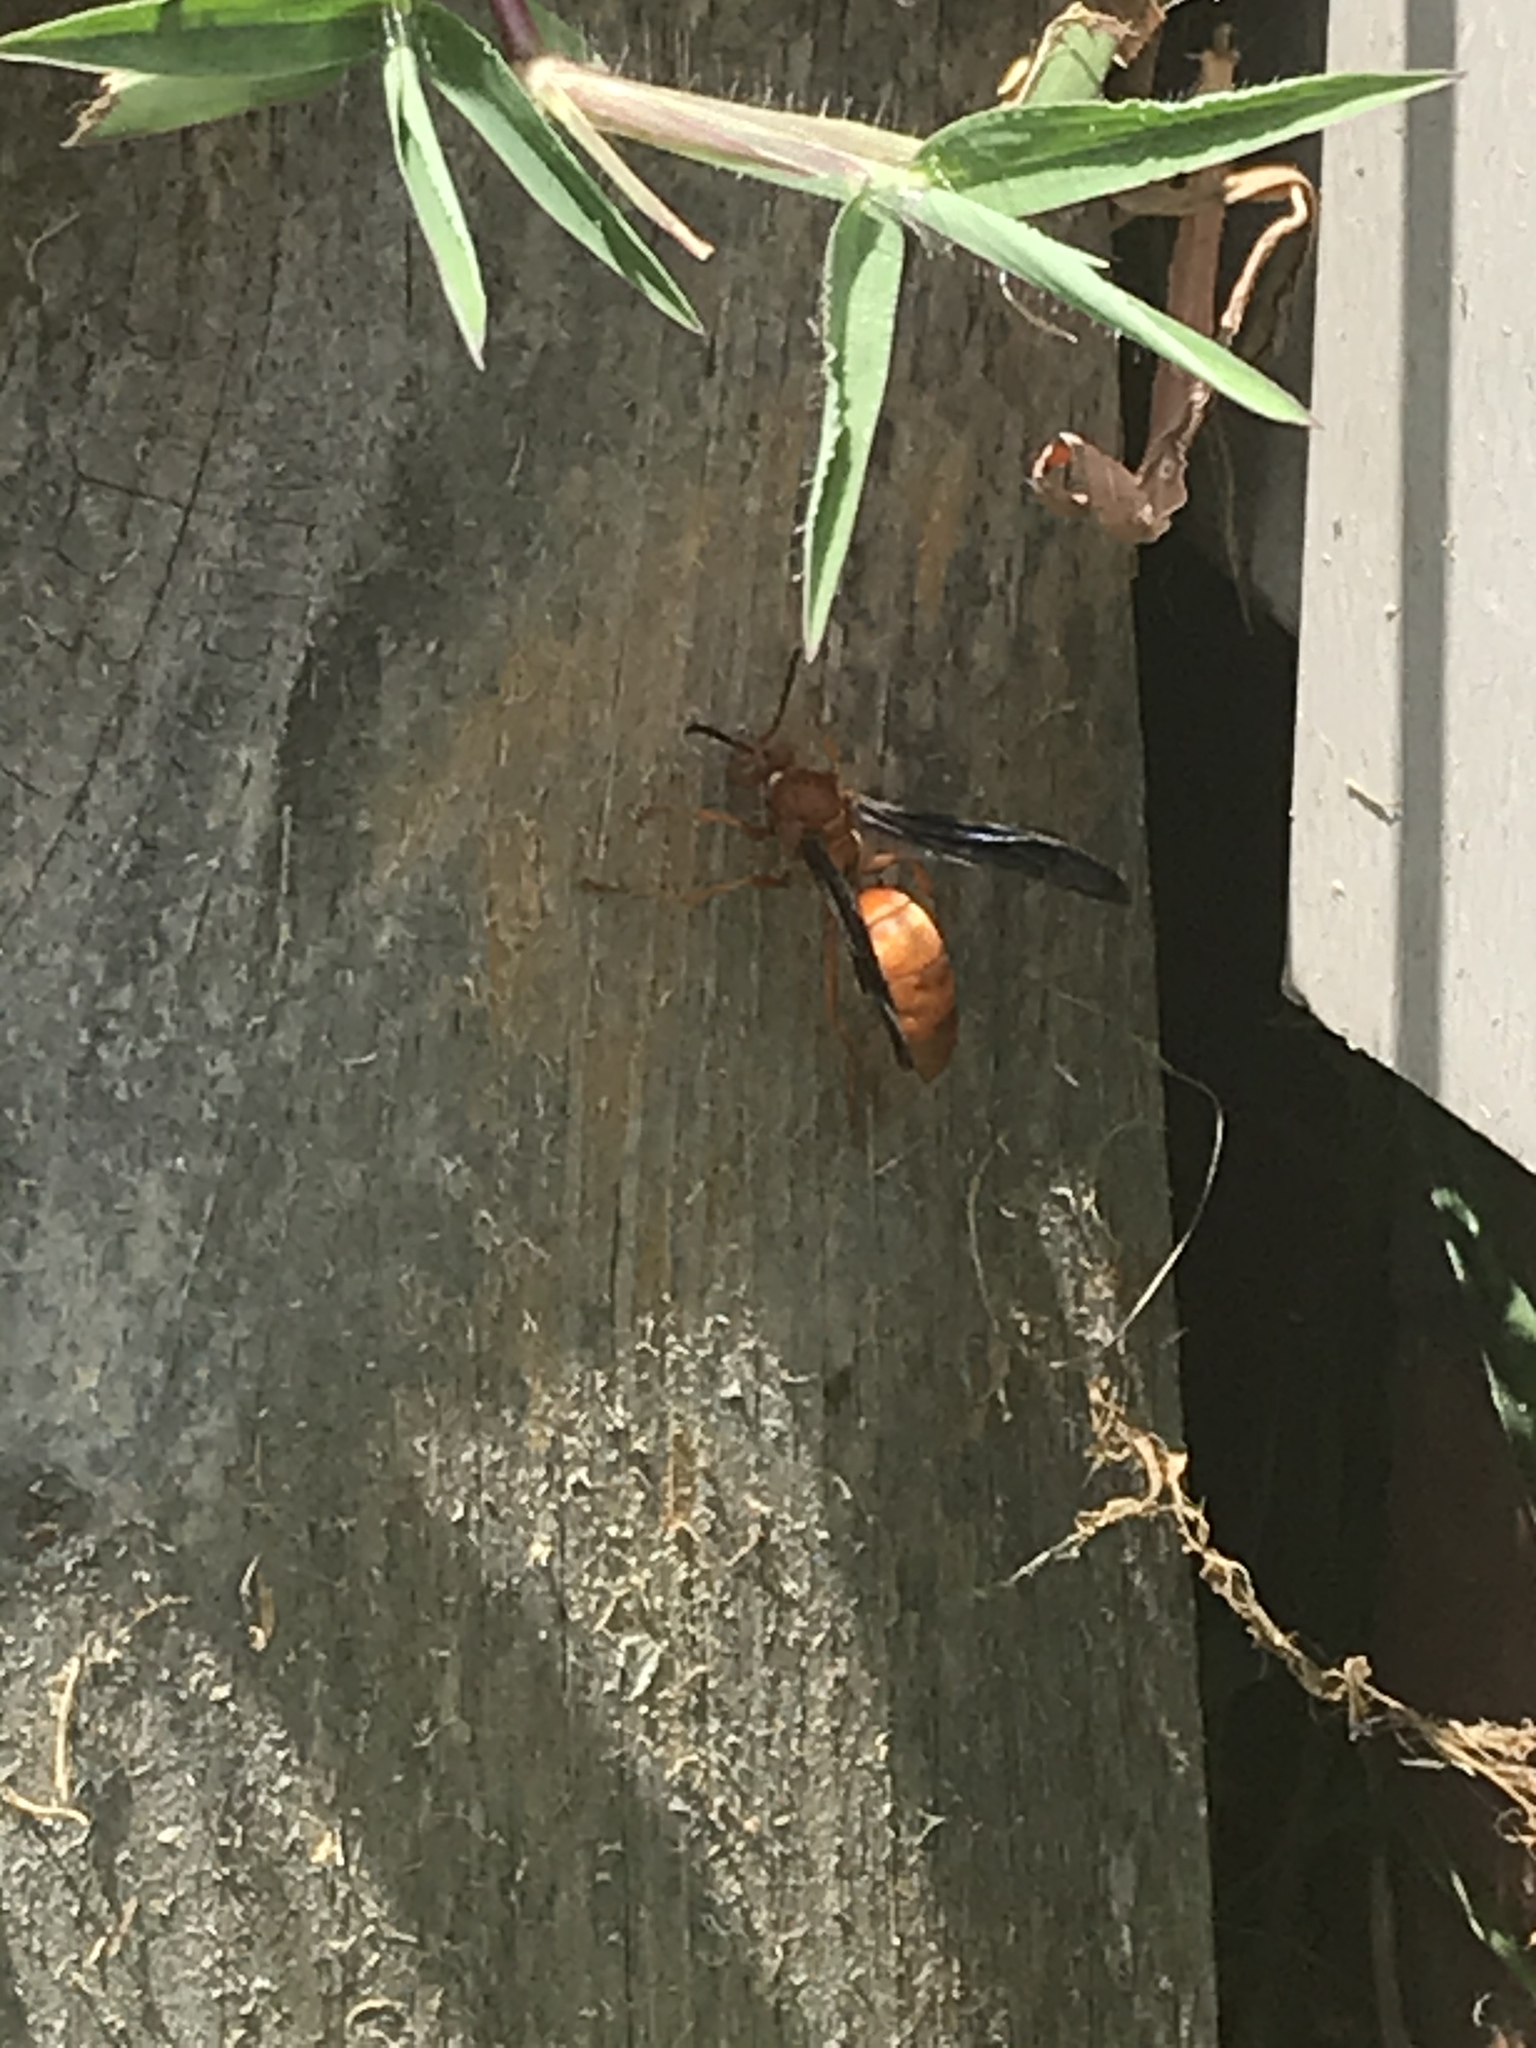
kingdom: Animalia
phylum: Arthropoda
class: Insecta
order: Hymenoptera
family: Eumenidae
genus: Polistes
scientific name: Polistes carolina
